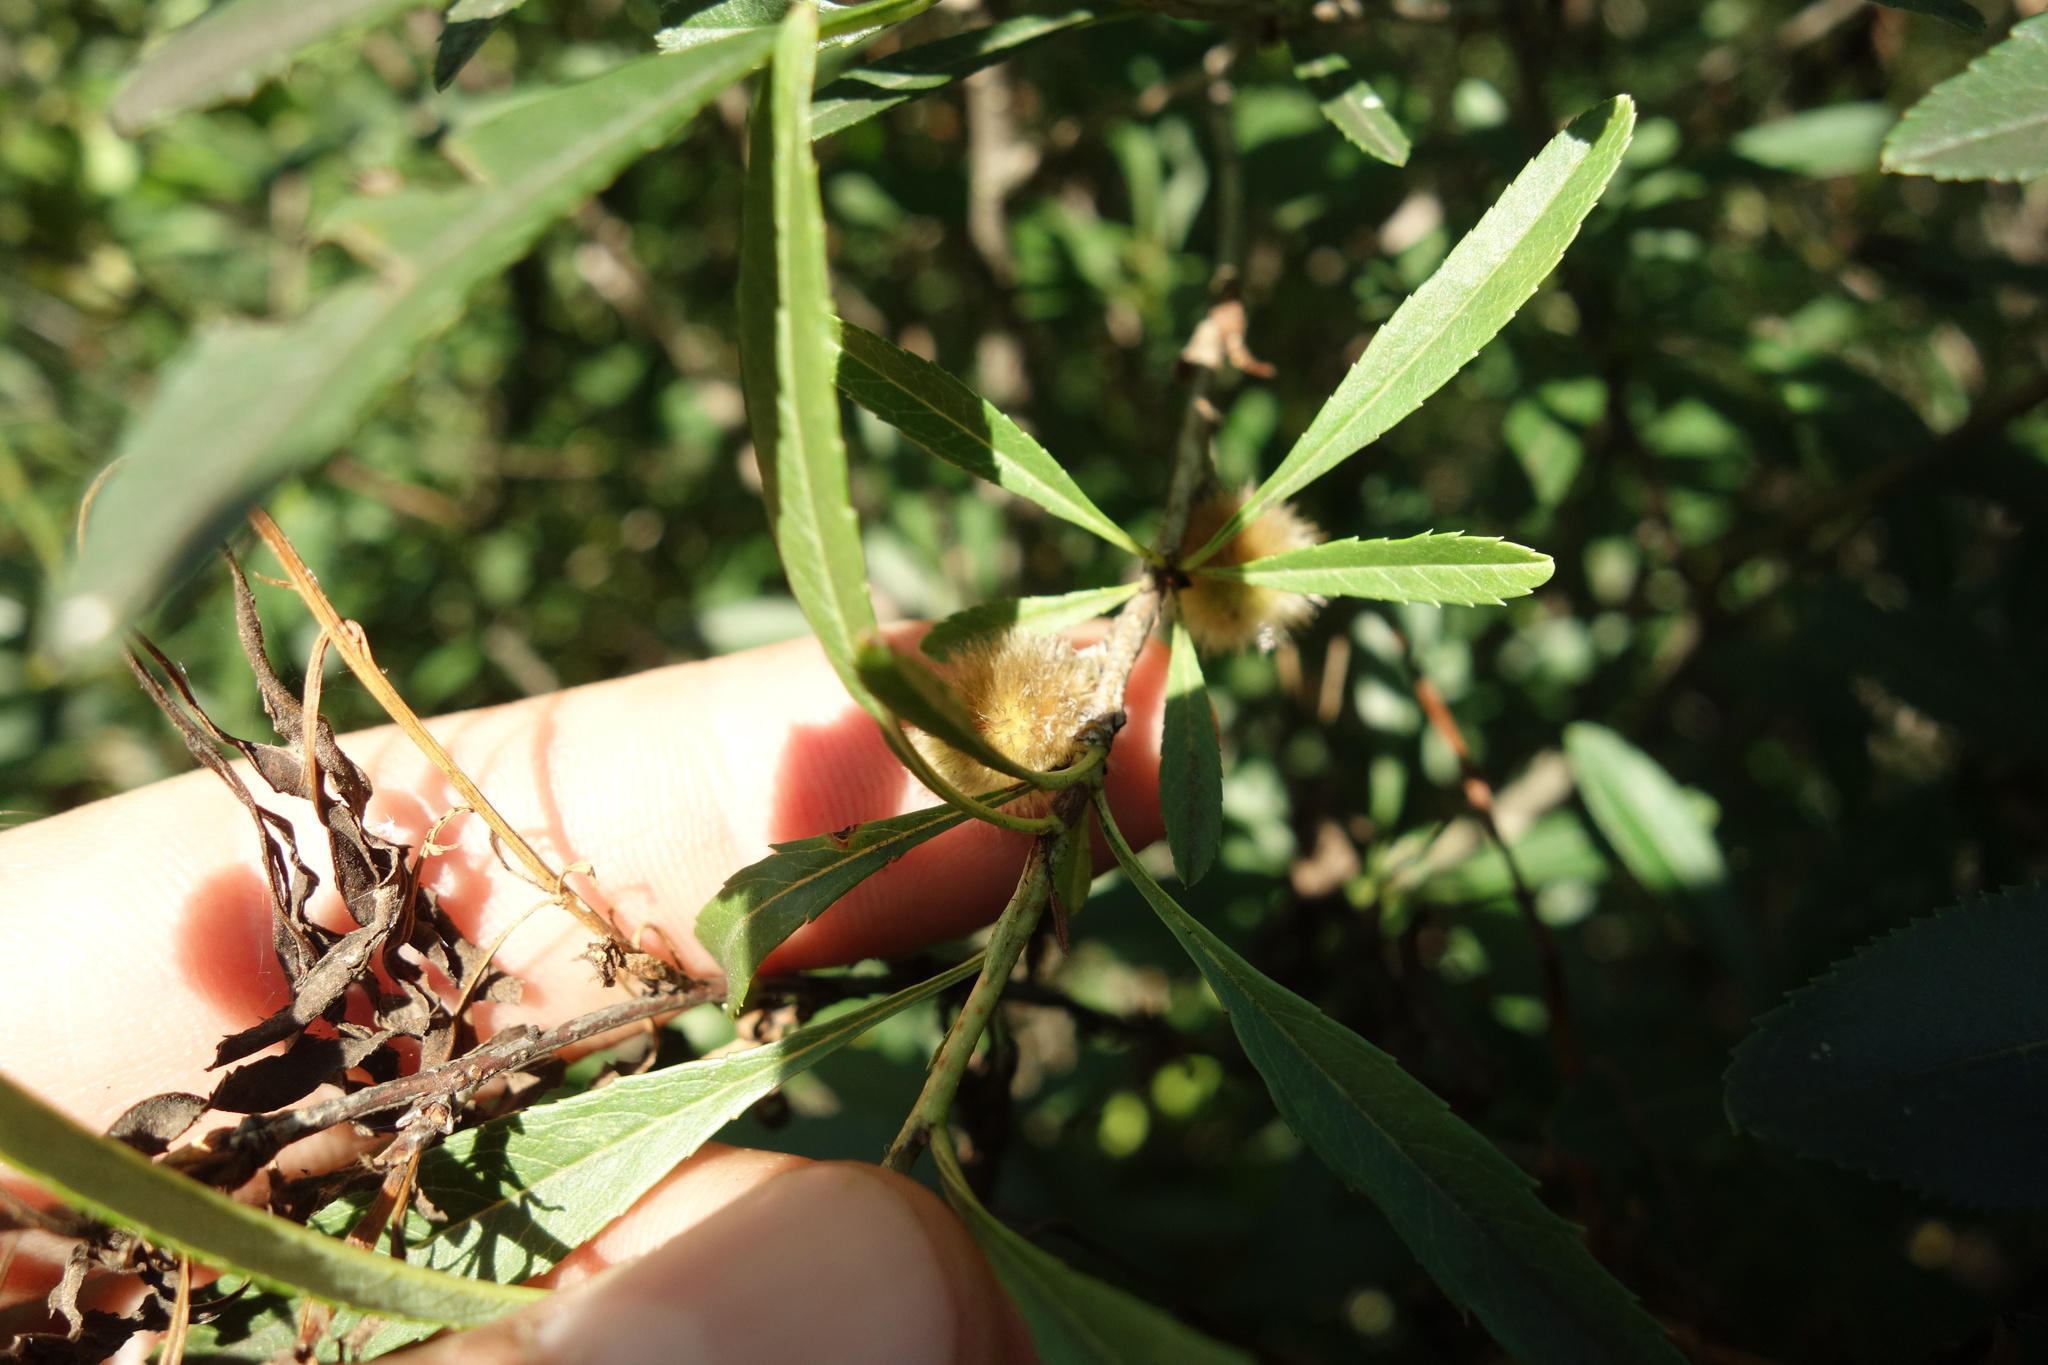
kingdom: Plantae
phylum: Tracheophyta
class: Magnoliopsida
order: Rosales
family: Rosaceae
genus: Prunus
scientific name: Prunus tenella
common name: Dwarf russian almond
